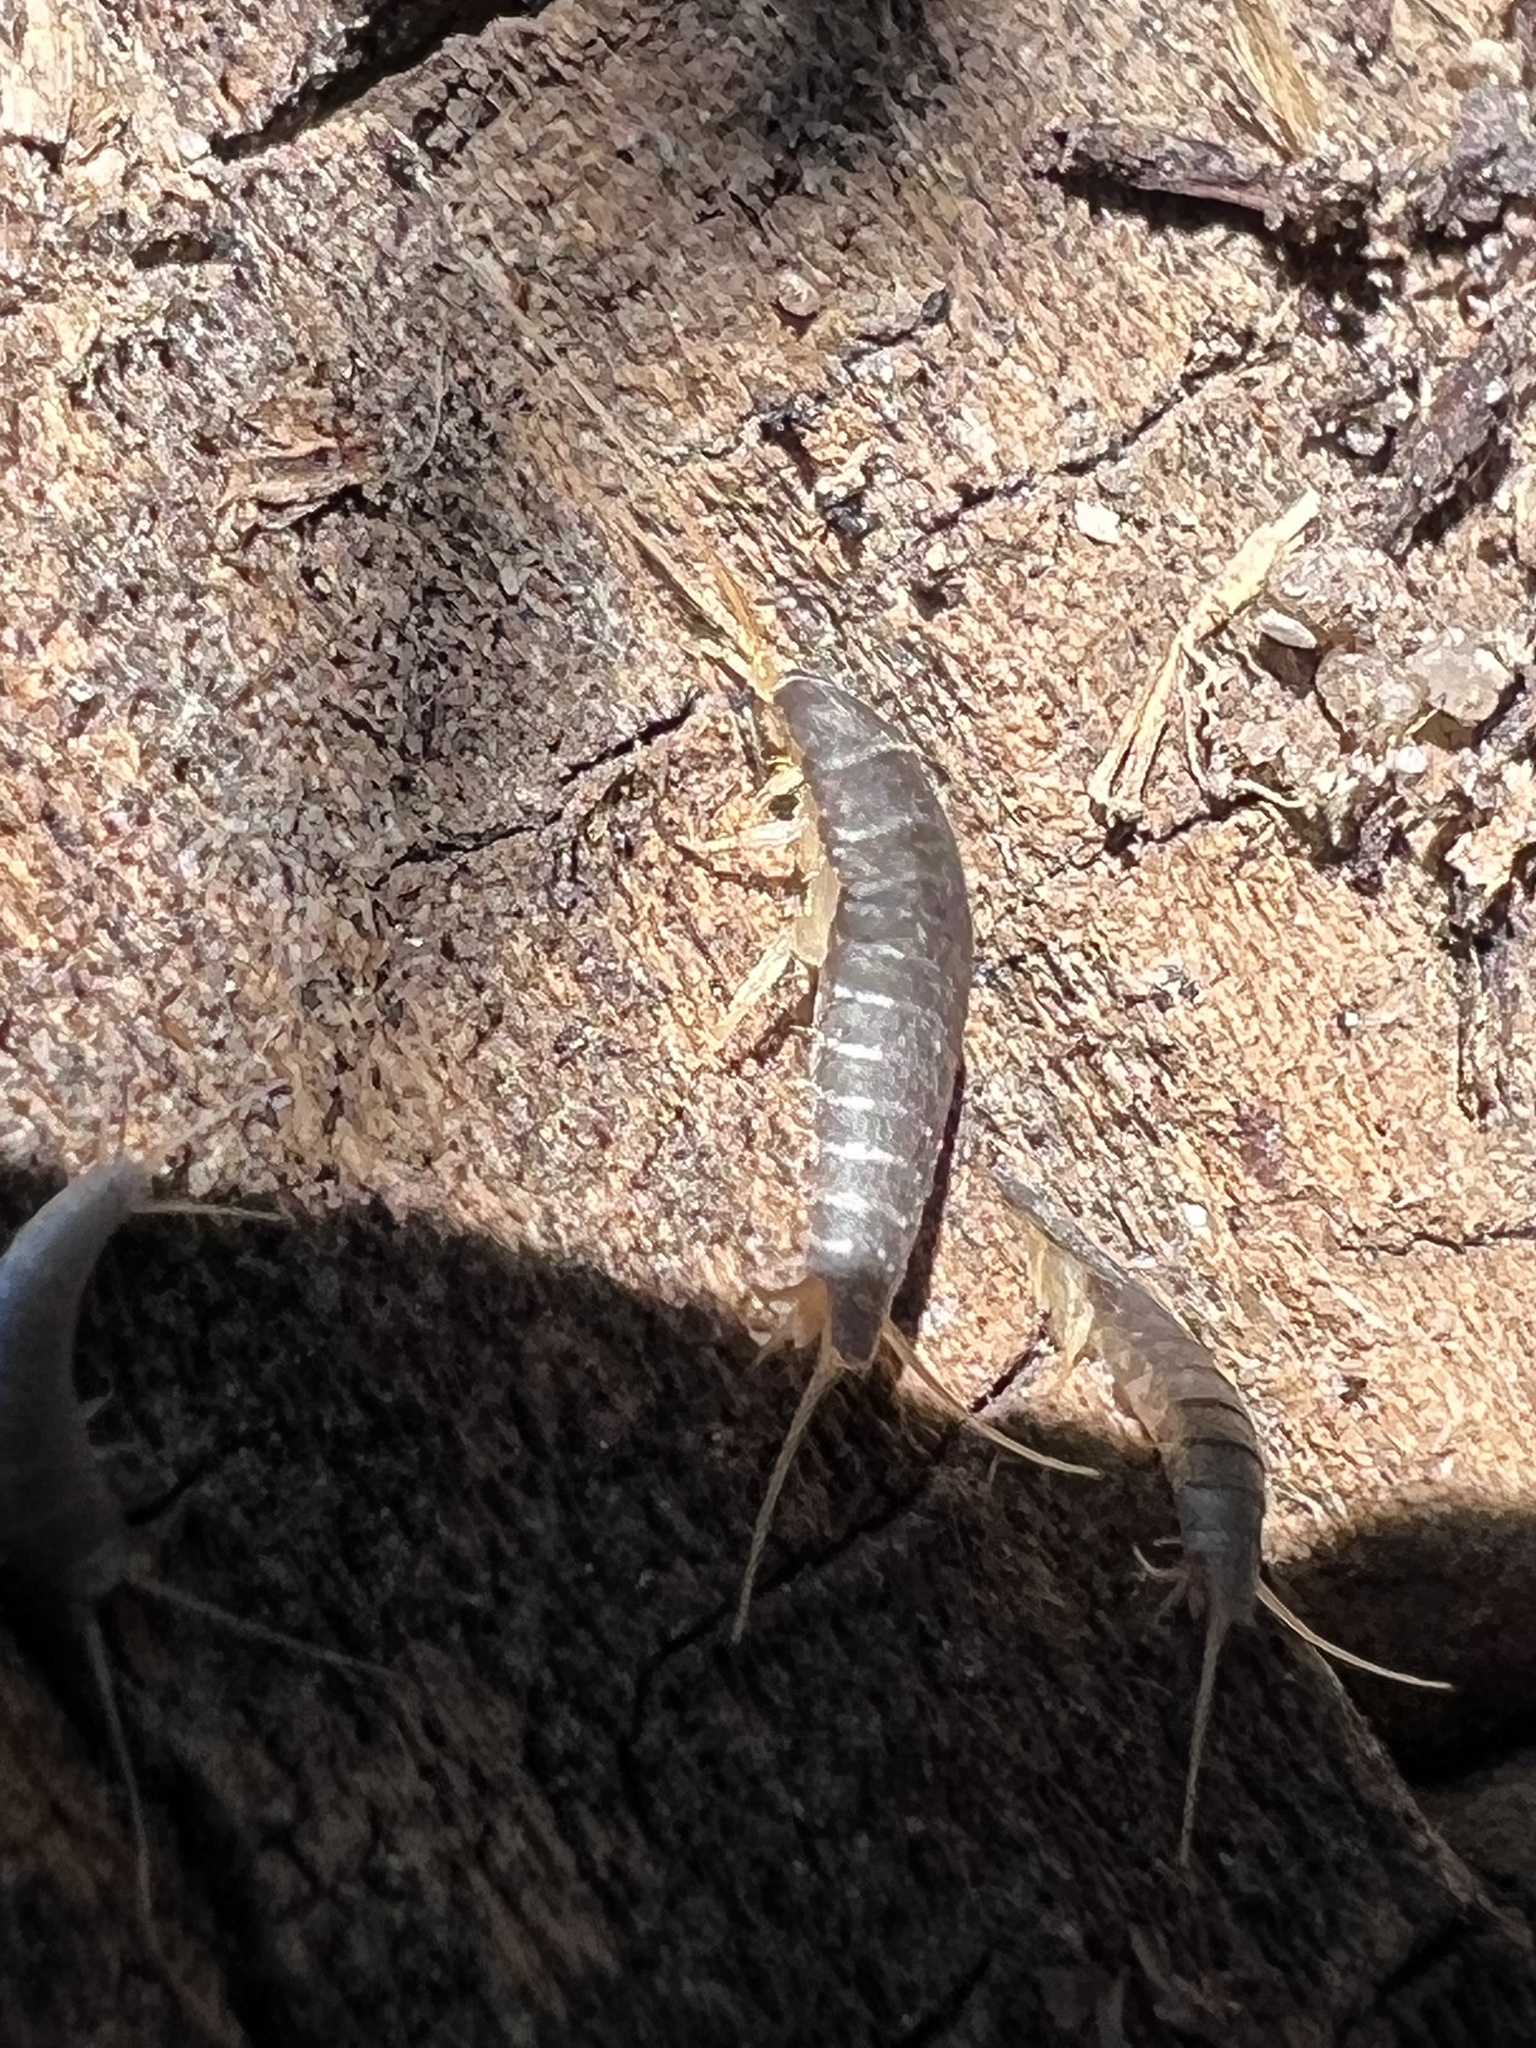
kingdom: Animalia
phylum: Arthropoda
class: Insecta
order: Zygentoma
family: Lepismatidae
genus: Lepisma
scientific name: Lepisma saccharinum
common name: Silverfish
